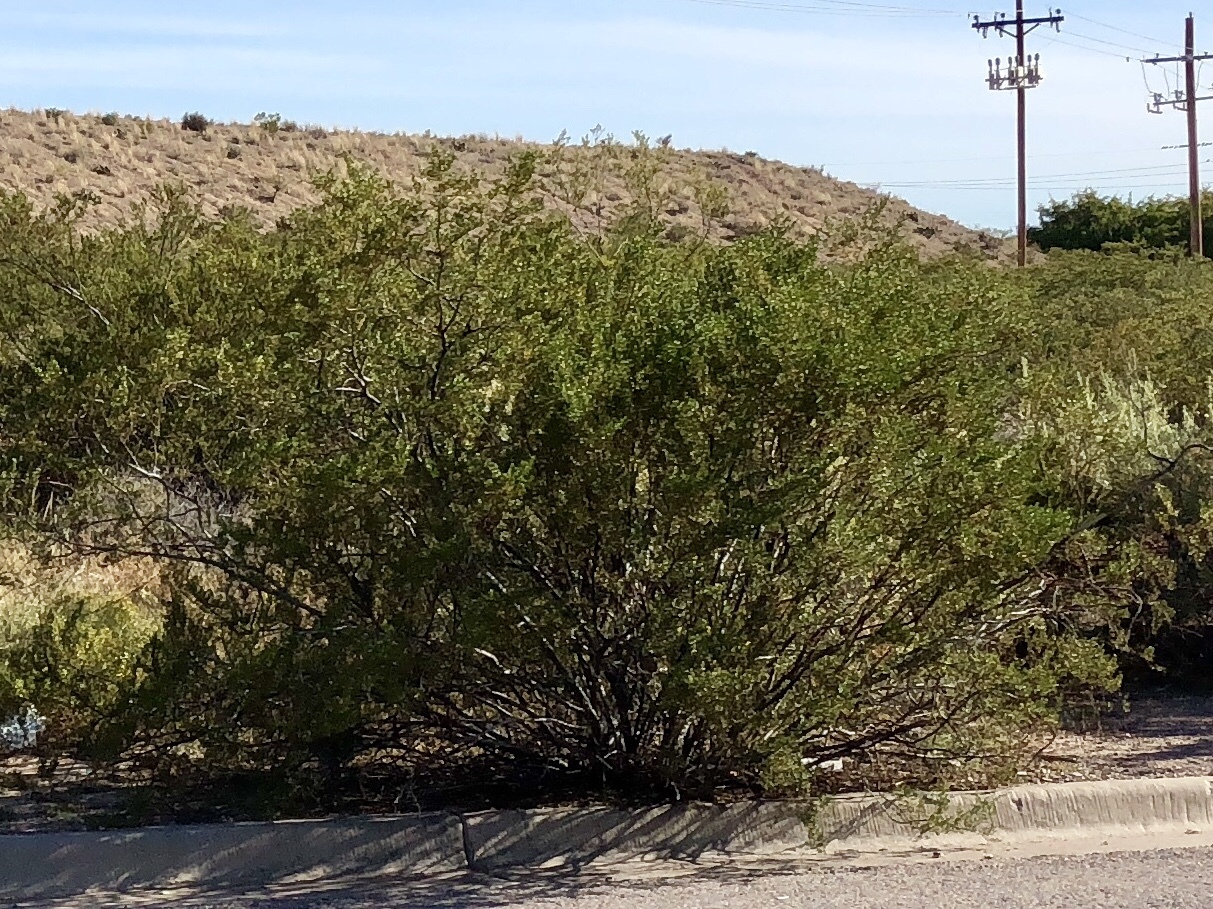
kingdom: Plantae
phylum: Tracheophyta
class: Magnoliopsida
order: Zygophyllales
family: Zygophyllaceae
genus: Larrea
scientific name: Larrea tridentata
